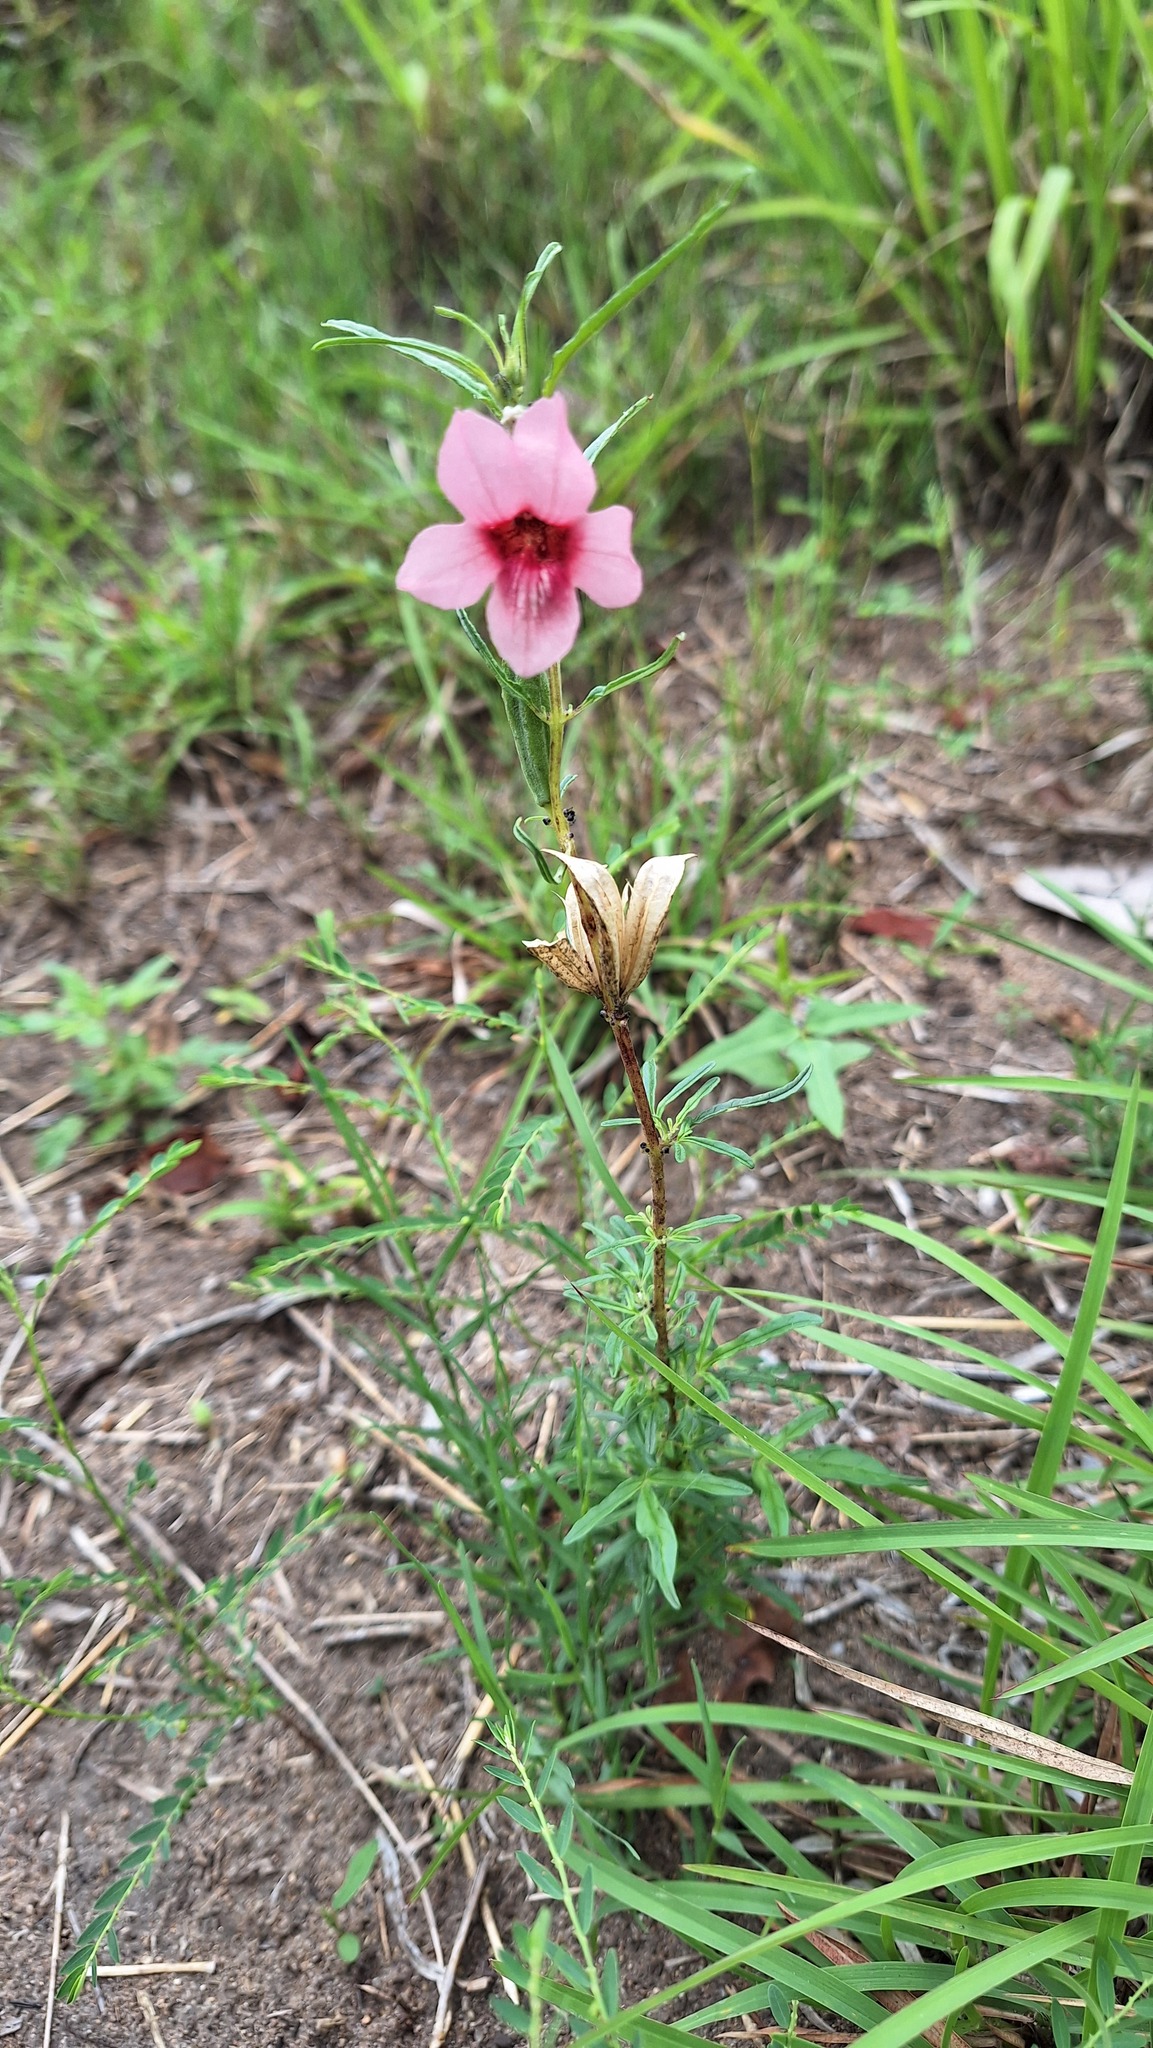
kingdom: Plantae
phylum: Tracheophyta
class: Magnoliopsida
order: Lamiales
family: Pedaliaceae
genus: Sesamum
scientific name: Sesamum triphyllum
